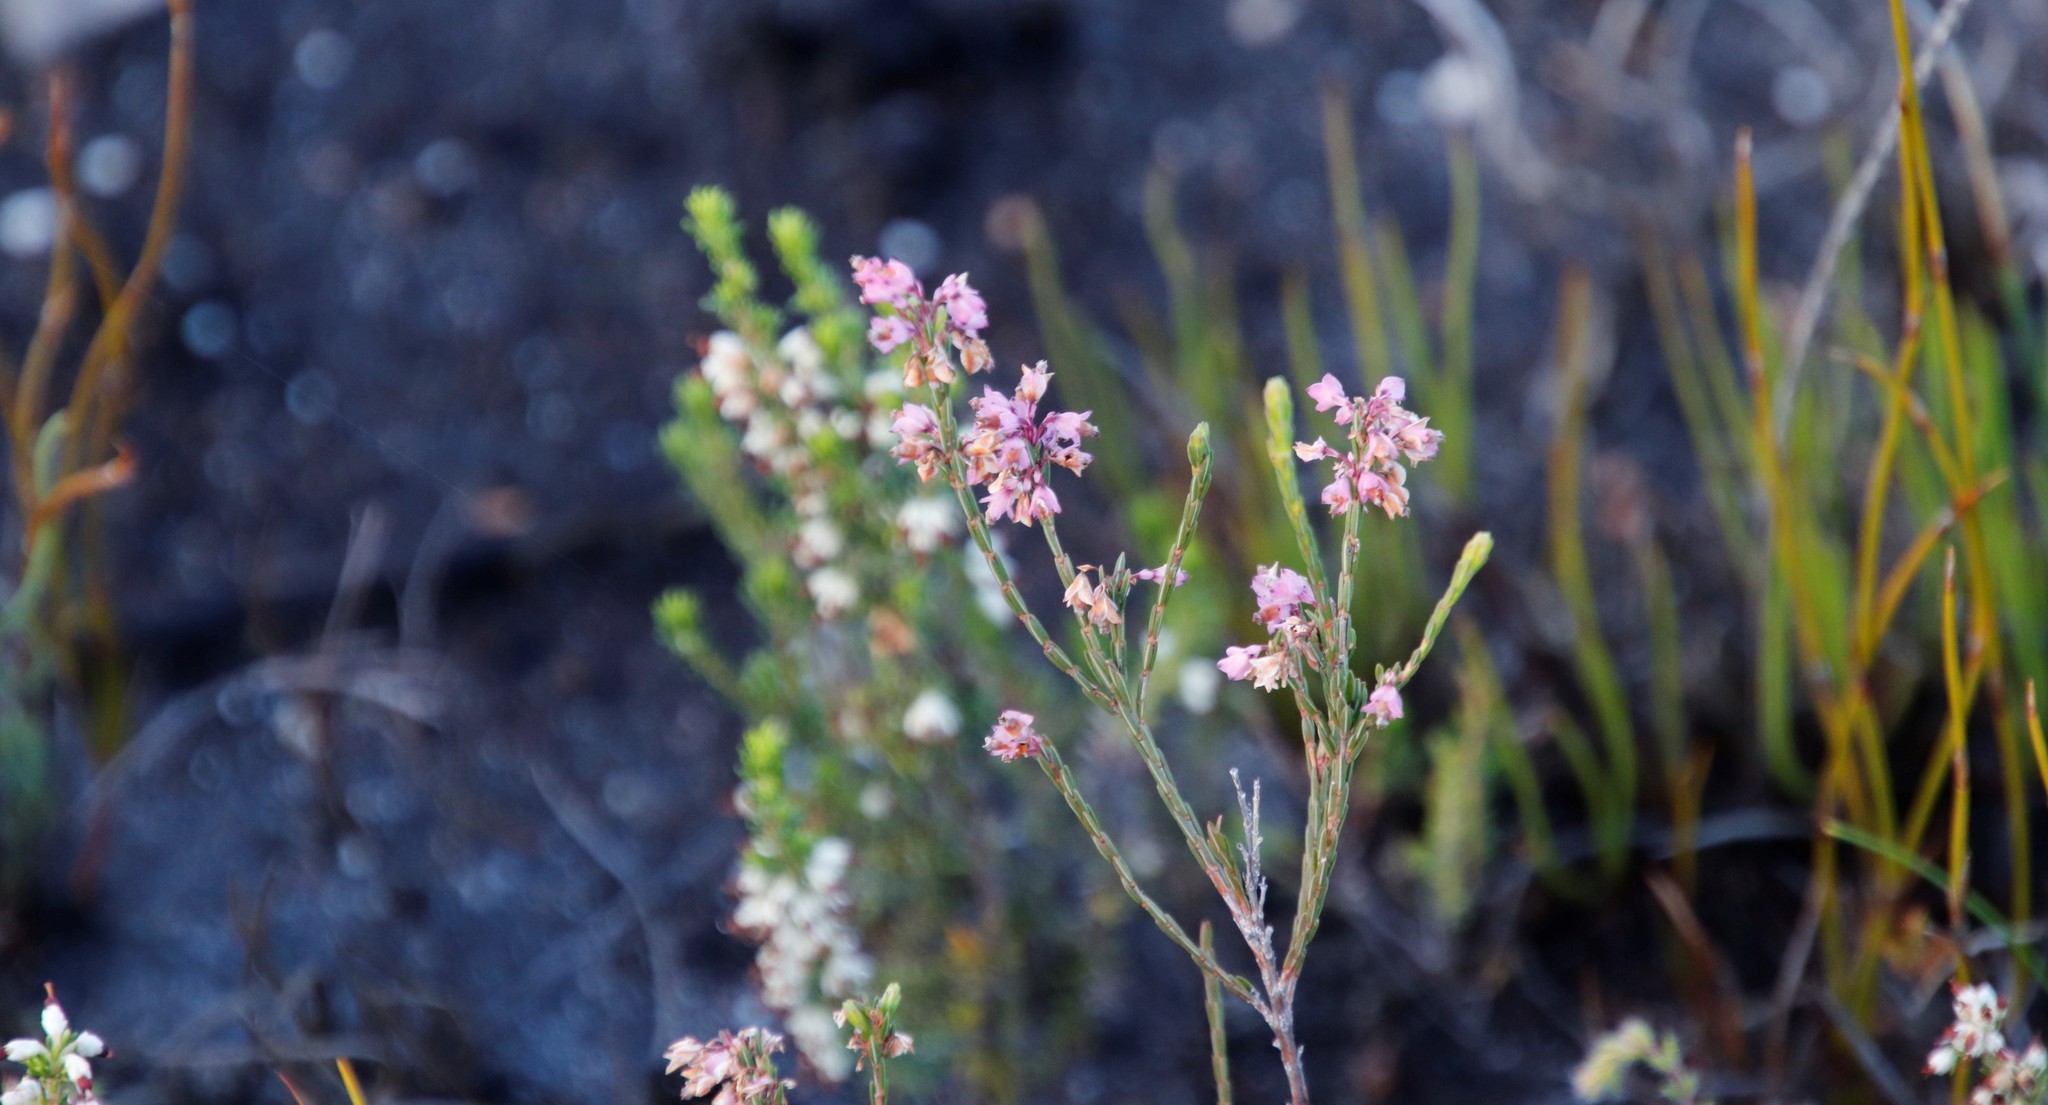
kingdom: Plantae
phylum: Tracheophyta
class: Magnoliopsida
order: Ericales
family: Ericaceae
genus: Erica
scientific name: Erica corifolia
